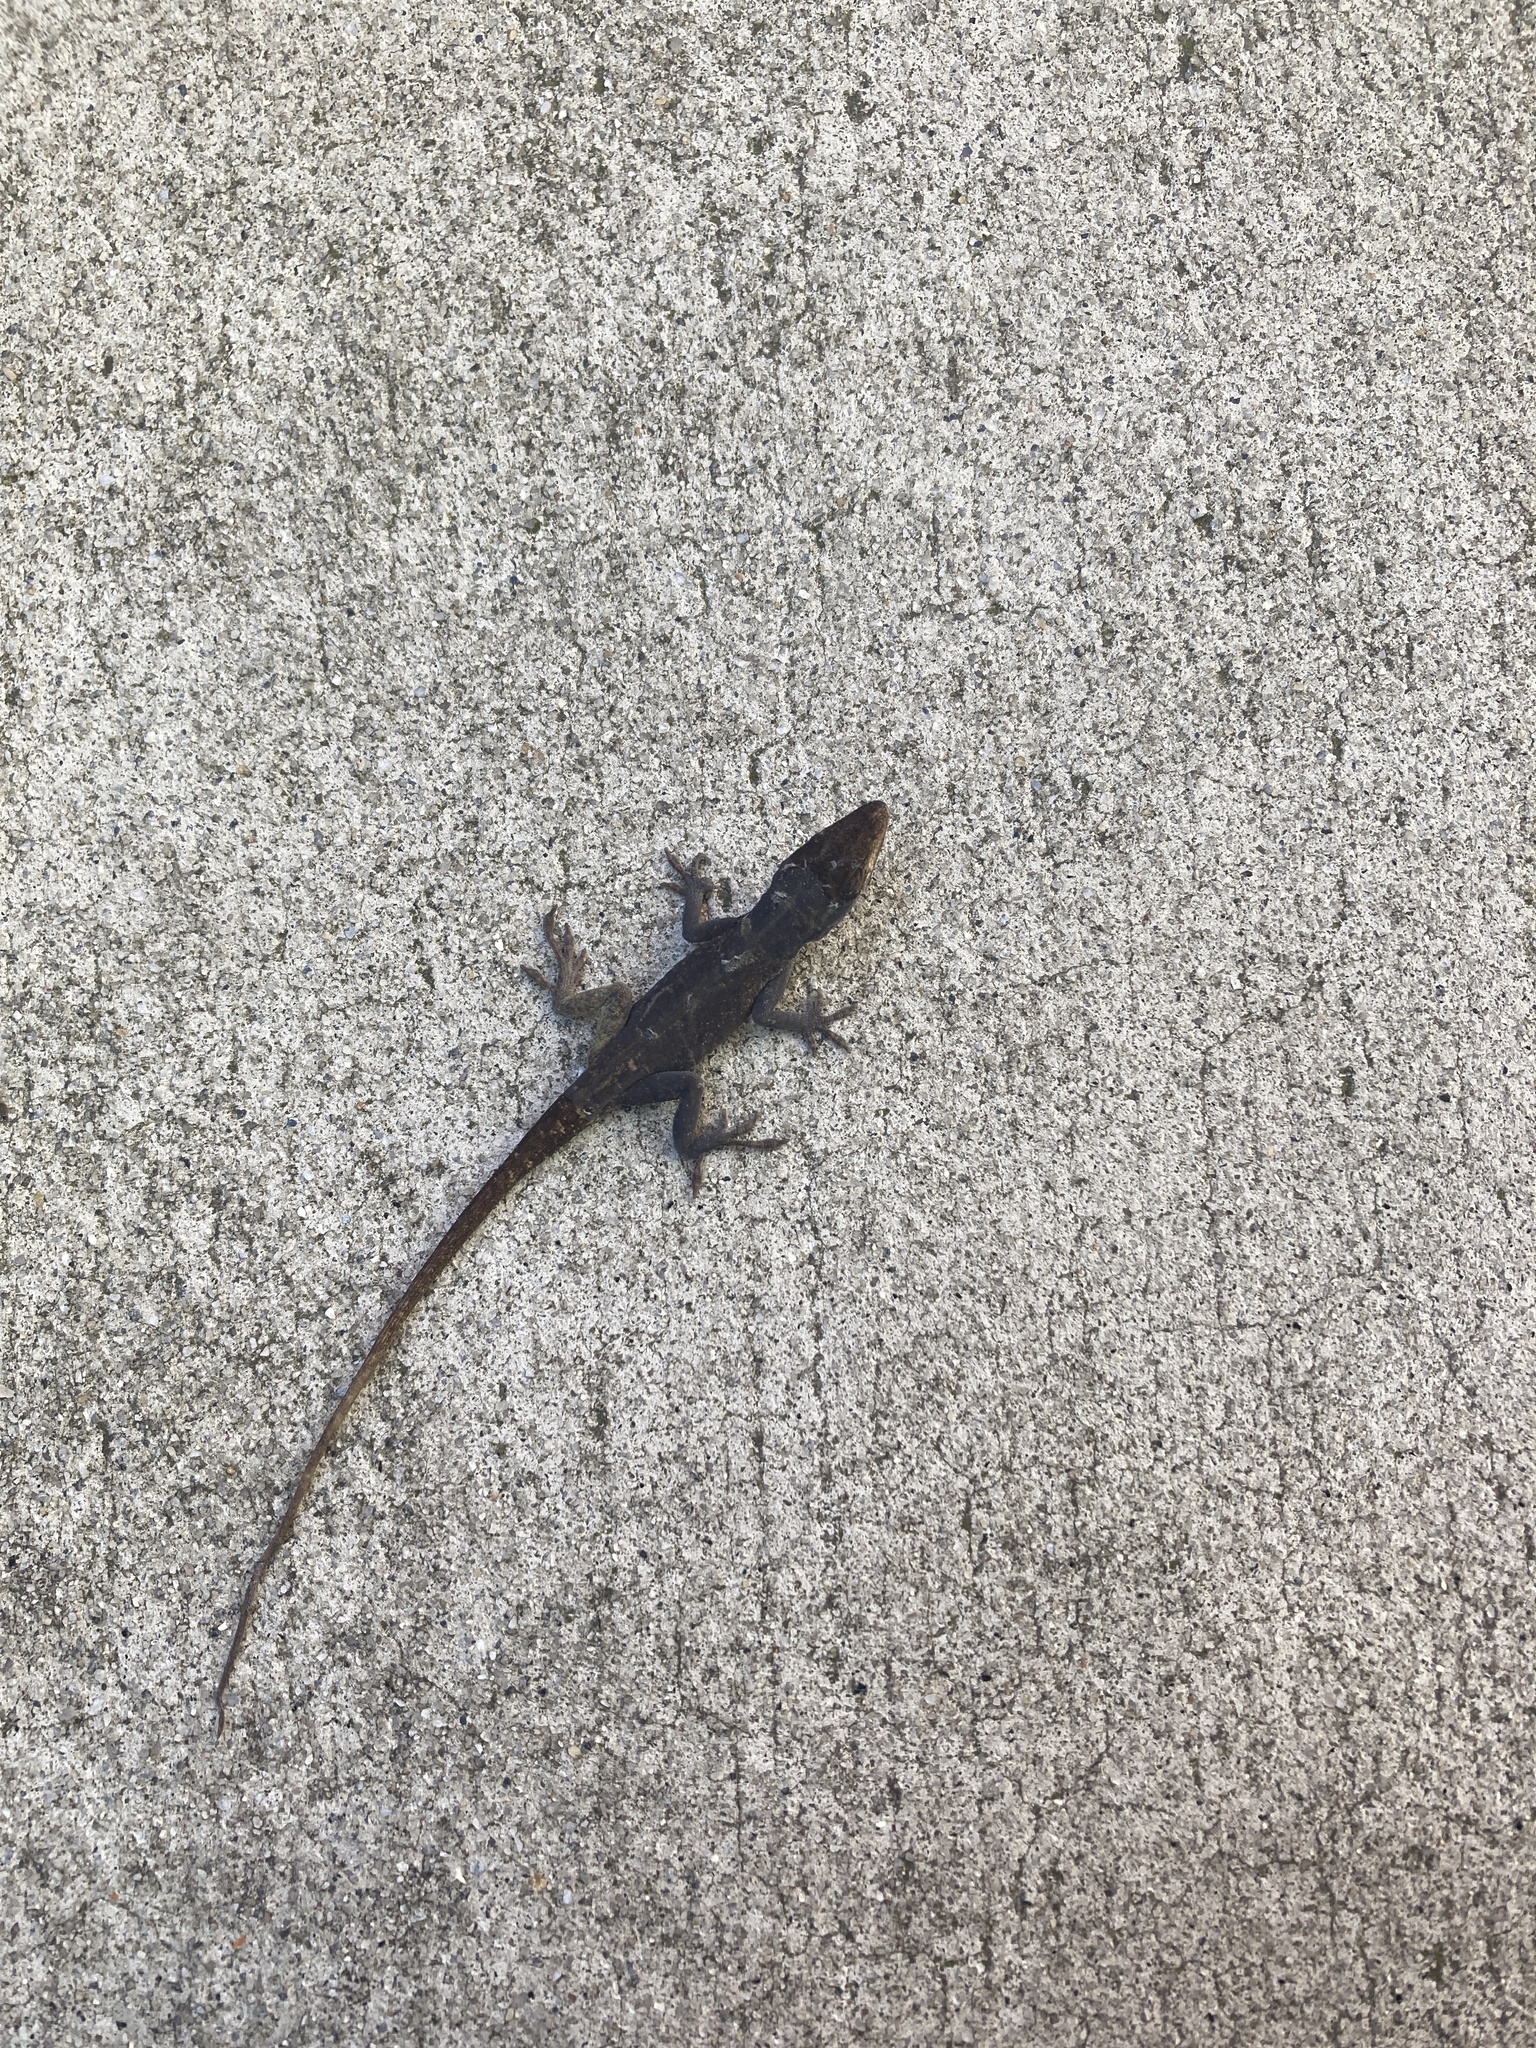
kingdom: Animalia
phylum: Chordata
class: Squamata
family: Dactyloidae
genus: Anolis
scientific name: Anolis carolinensis
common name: Green anole
